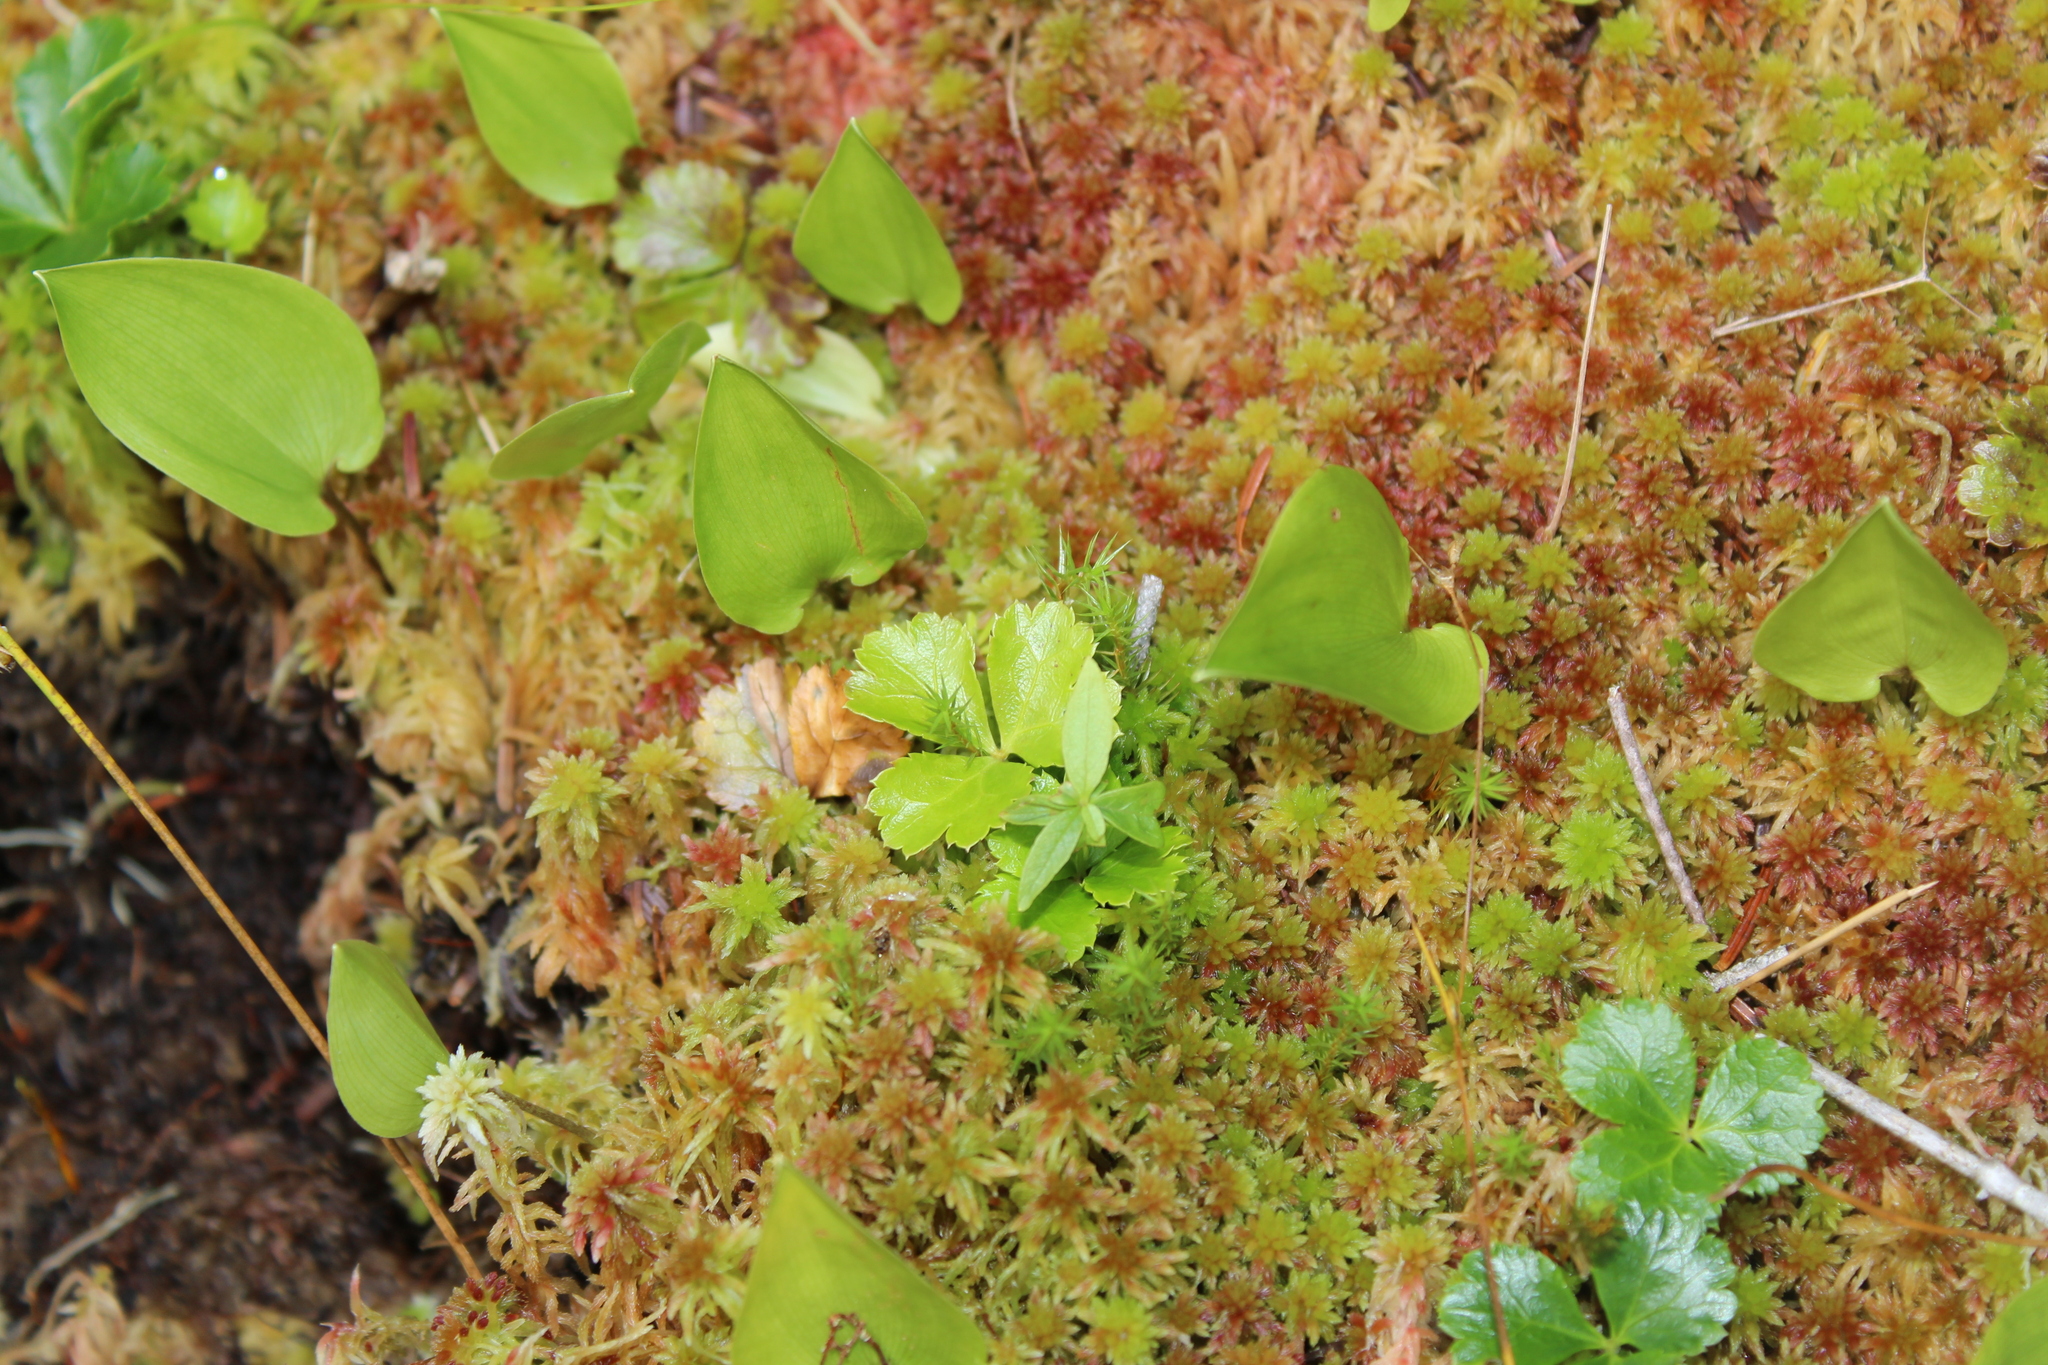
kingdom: Plantae
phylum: Tracheophyta
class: Magnoliopsida
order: Ranunculales
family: Ranunculaceae
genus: Coptis
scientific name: Coptis trifolia
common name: Canker-root
